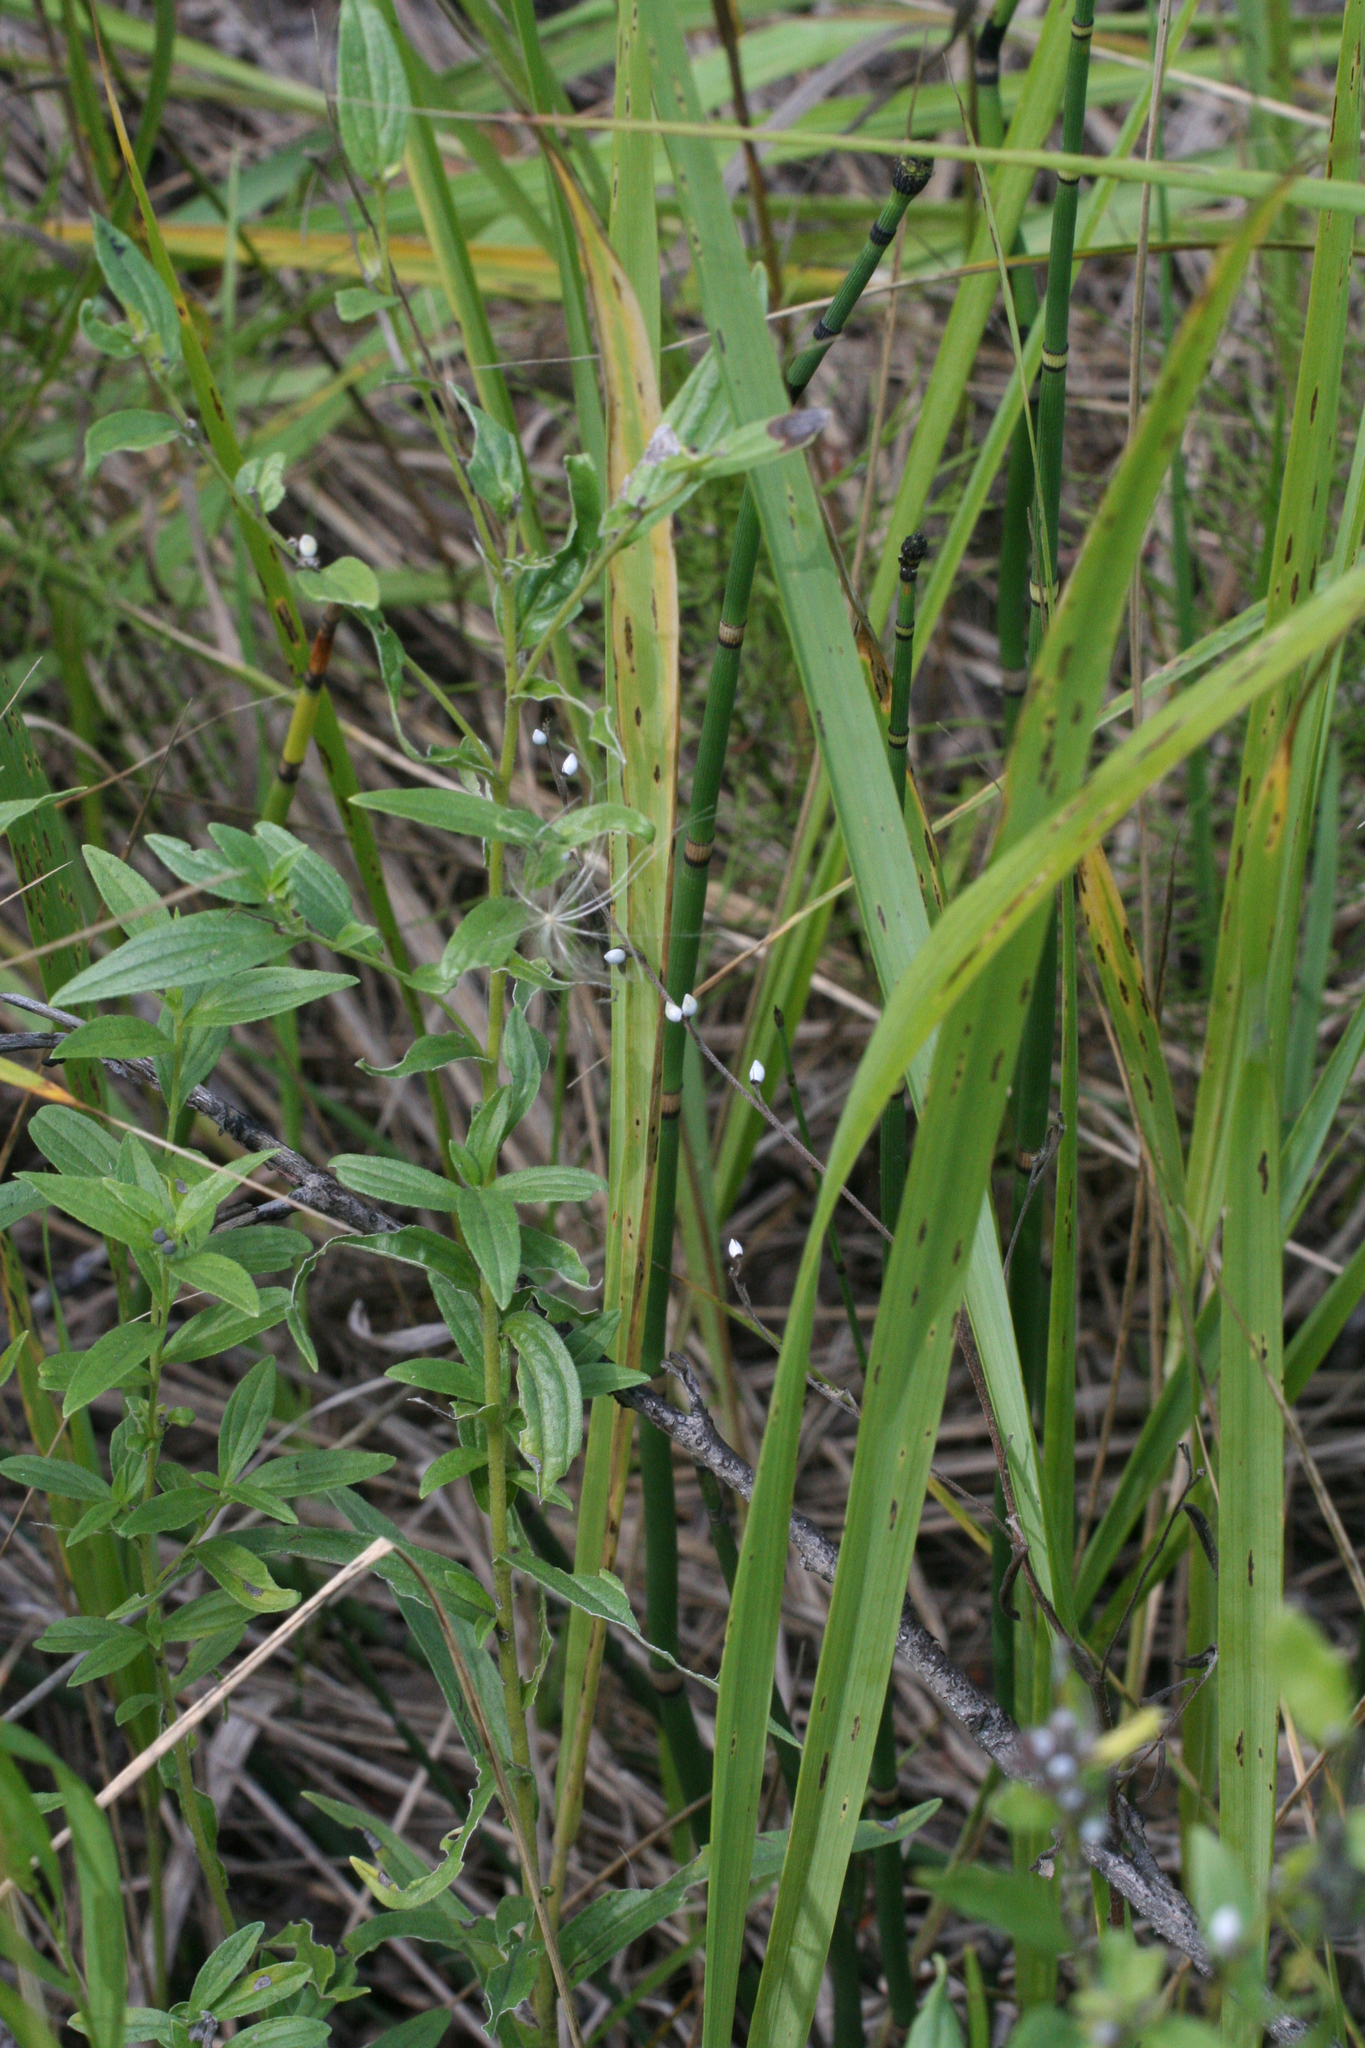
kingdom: Plantae
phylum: Tracheophyta
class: Magnoliopsida
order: Boraginales
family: Boraginaceae
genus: Lithospermum
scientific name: Lithospermum officinale
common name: Common gromwell
